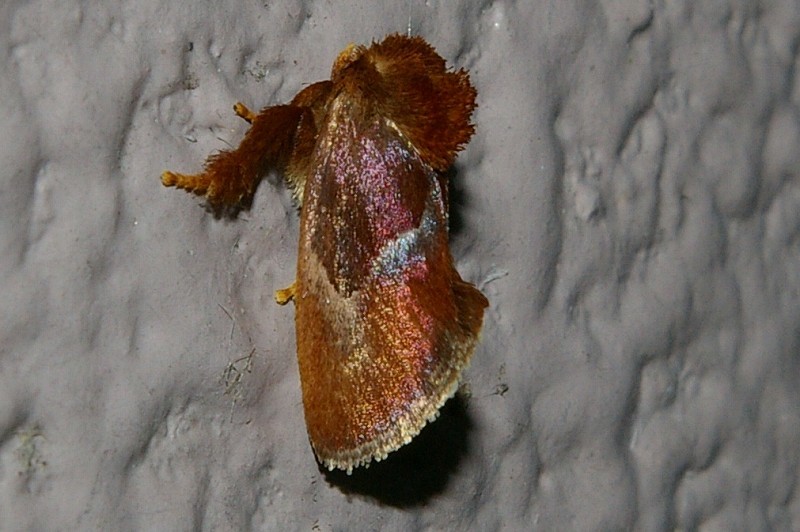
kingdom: Animalia
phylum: Arthropoda
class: Insecta
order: Lepidoptera
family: Limacodidae
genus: Phrixolepia
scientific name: Phrixolepia sericea
